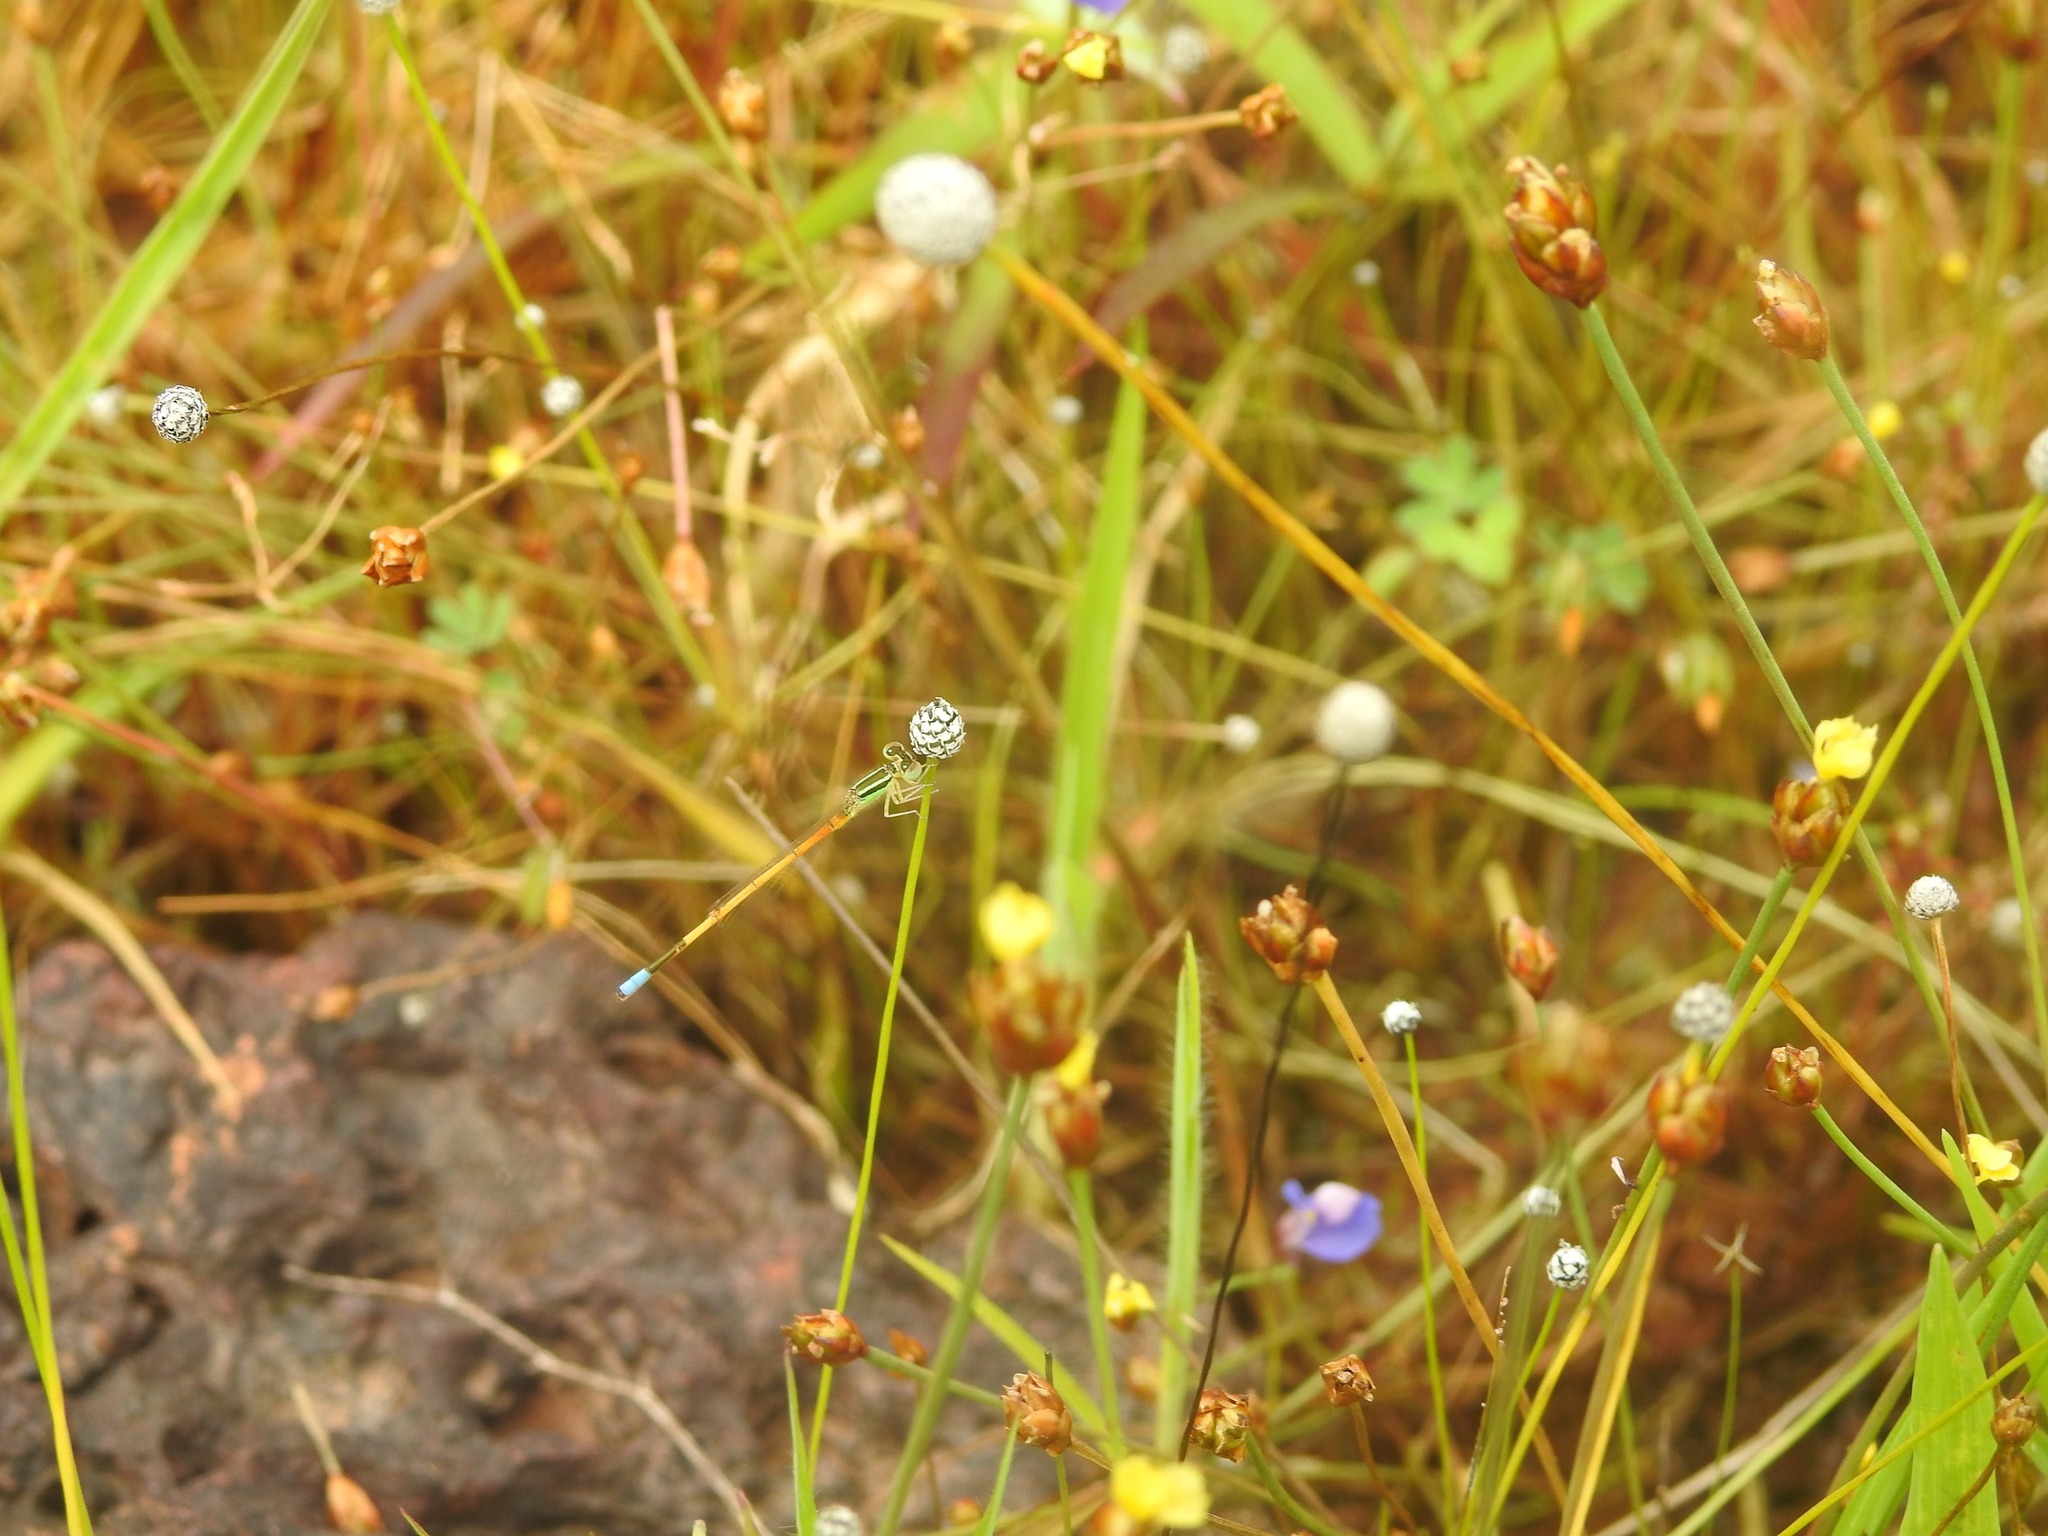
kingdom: Animalia
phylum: Arthropoda
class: Insecta
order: Odonata
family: Coenagrionidae
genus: Ischnura
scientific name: Ischnura rubilio
